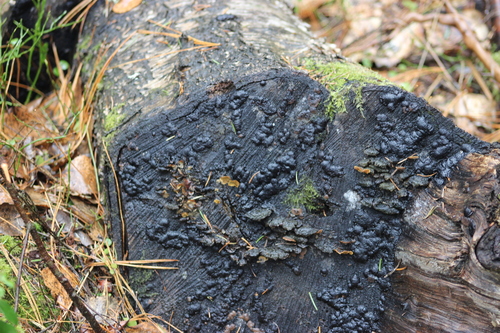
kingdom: Fungi
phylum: Ascomycota
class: Lecanoromycetes
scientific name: Lecanoromycetes
